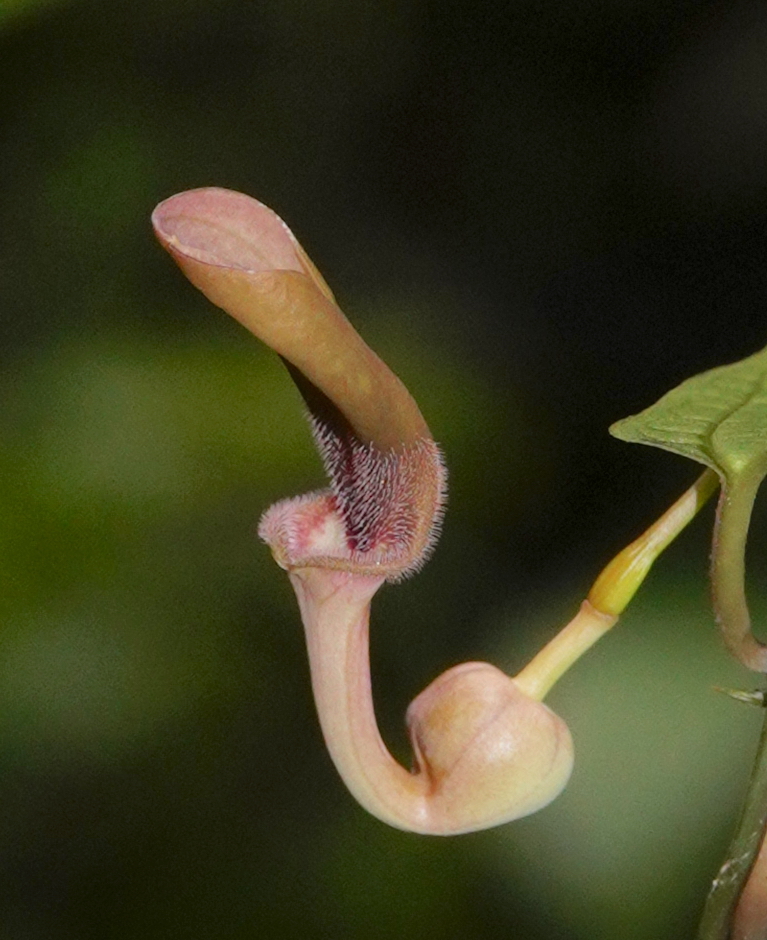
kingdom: Plantae
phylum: Tracheophyta
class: Magnoliopsida
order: Piperales
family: Aristolochiaceae
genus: Aristolochia
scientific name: Aristolochia indica
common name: Indian birthwort
